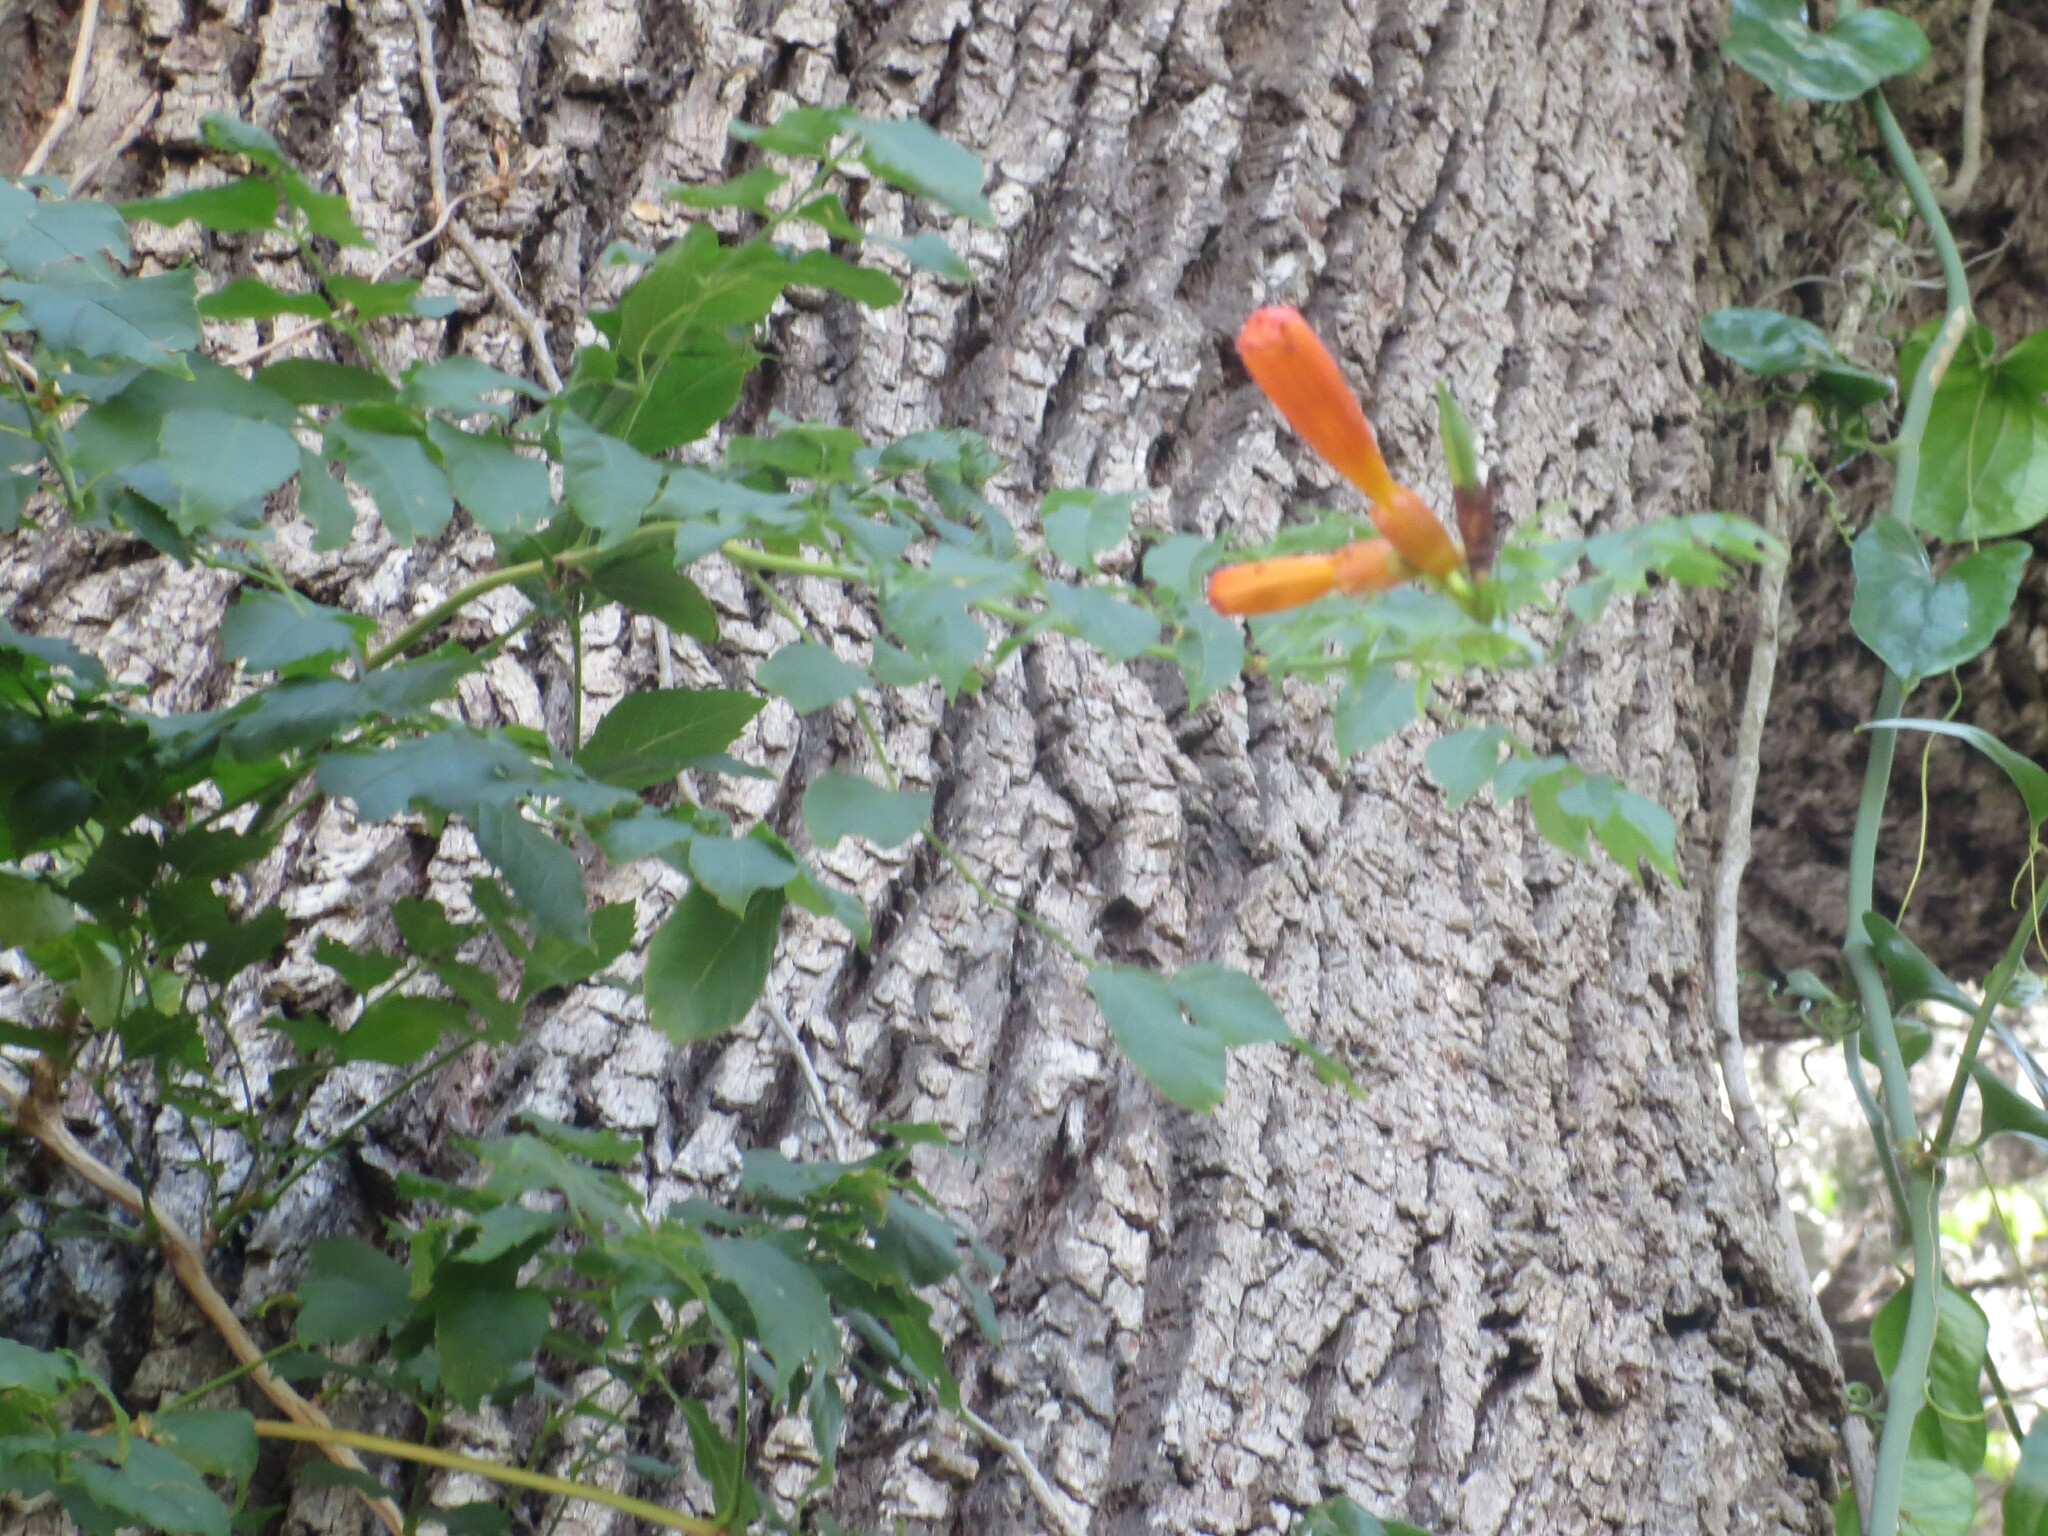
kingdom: Plantae
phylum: Tracheophyta
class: Magnoliopsida
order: Lamiales
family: Bignoniaceae
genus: Campsis
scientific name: Campsis radicans
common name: Trumpet-creeper
